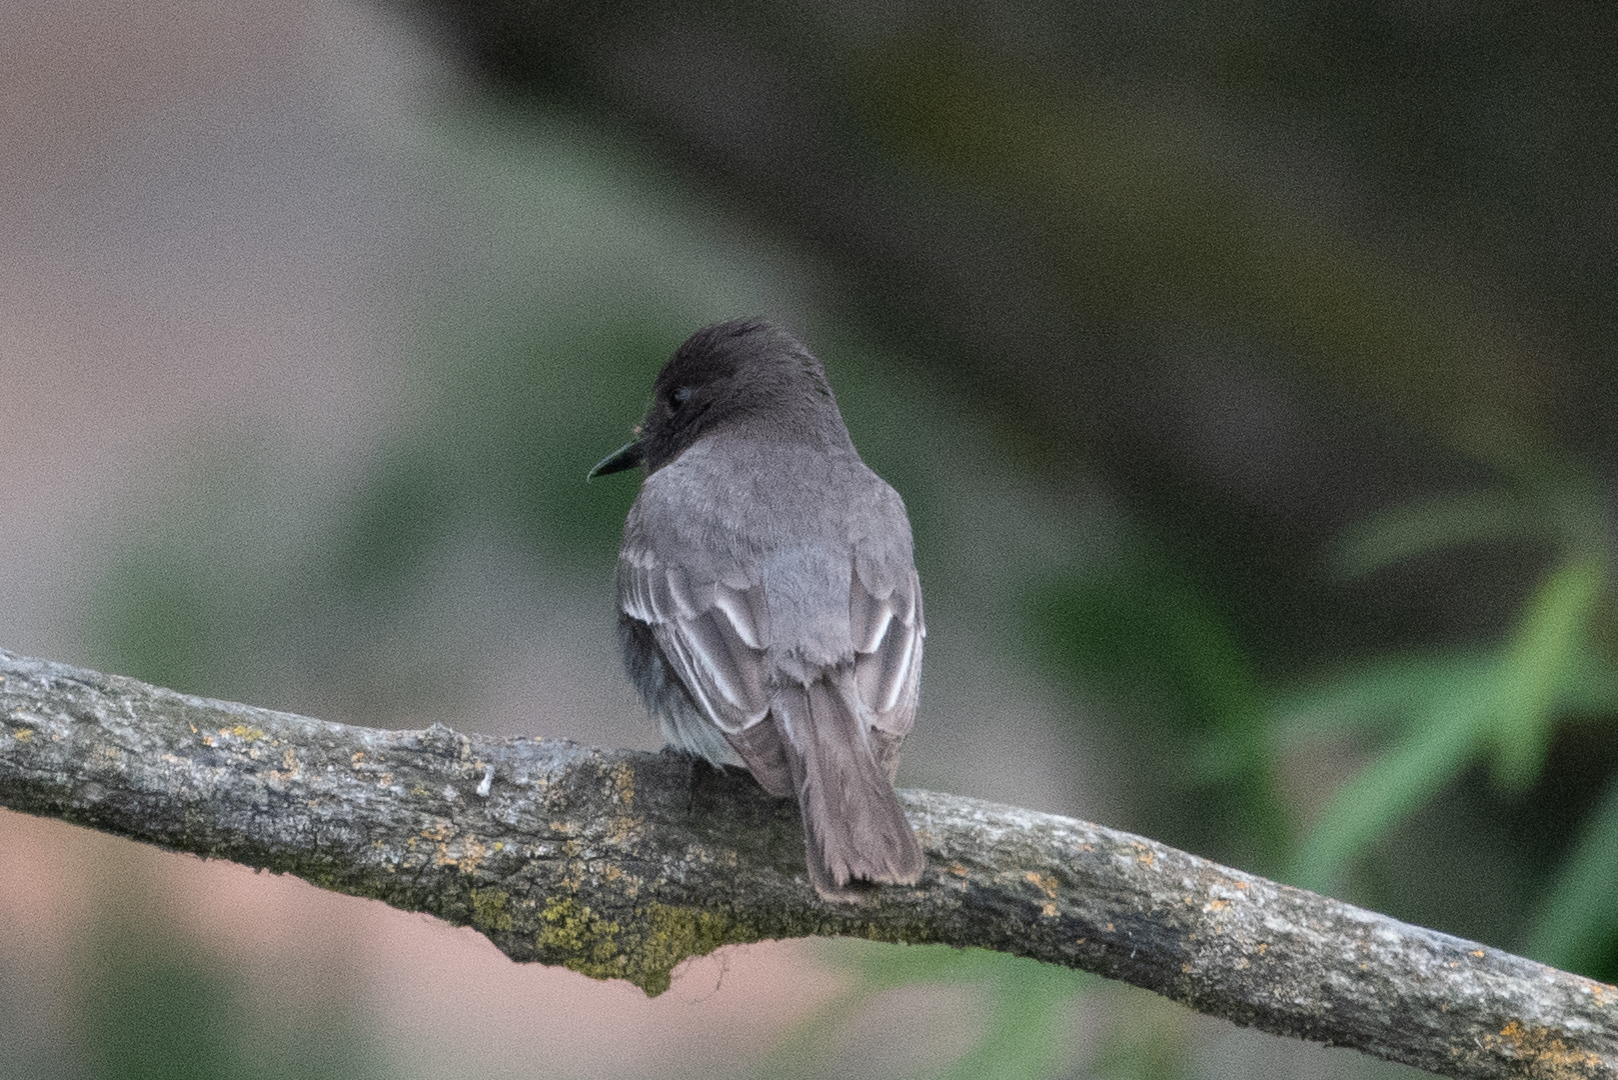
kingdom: Animalia
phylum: Chordata
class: Aves
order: Passeriformes
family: Tyrannidae
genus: Sayornis
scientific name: Sayornis nigricans
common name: Black phoebe
